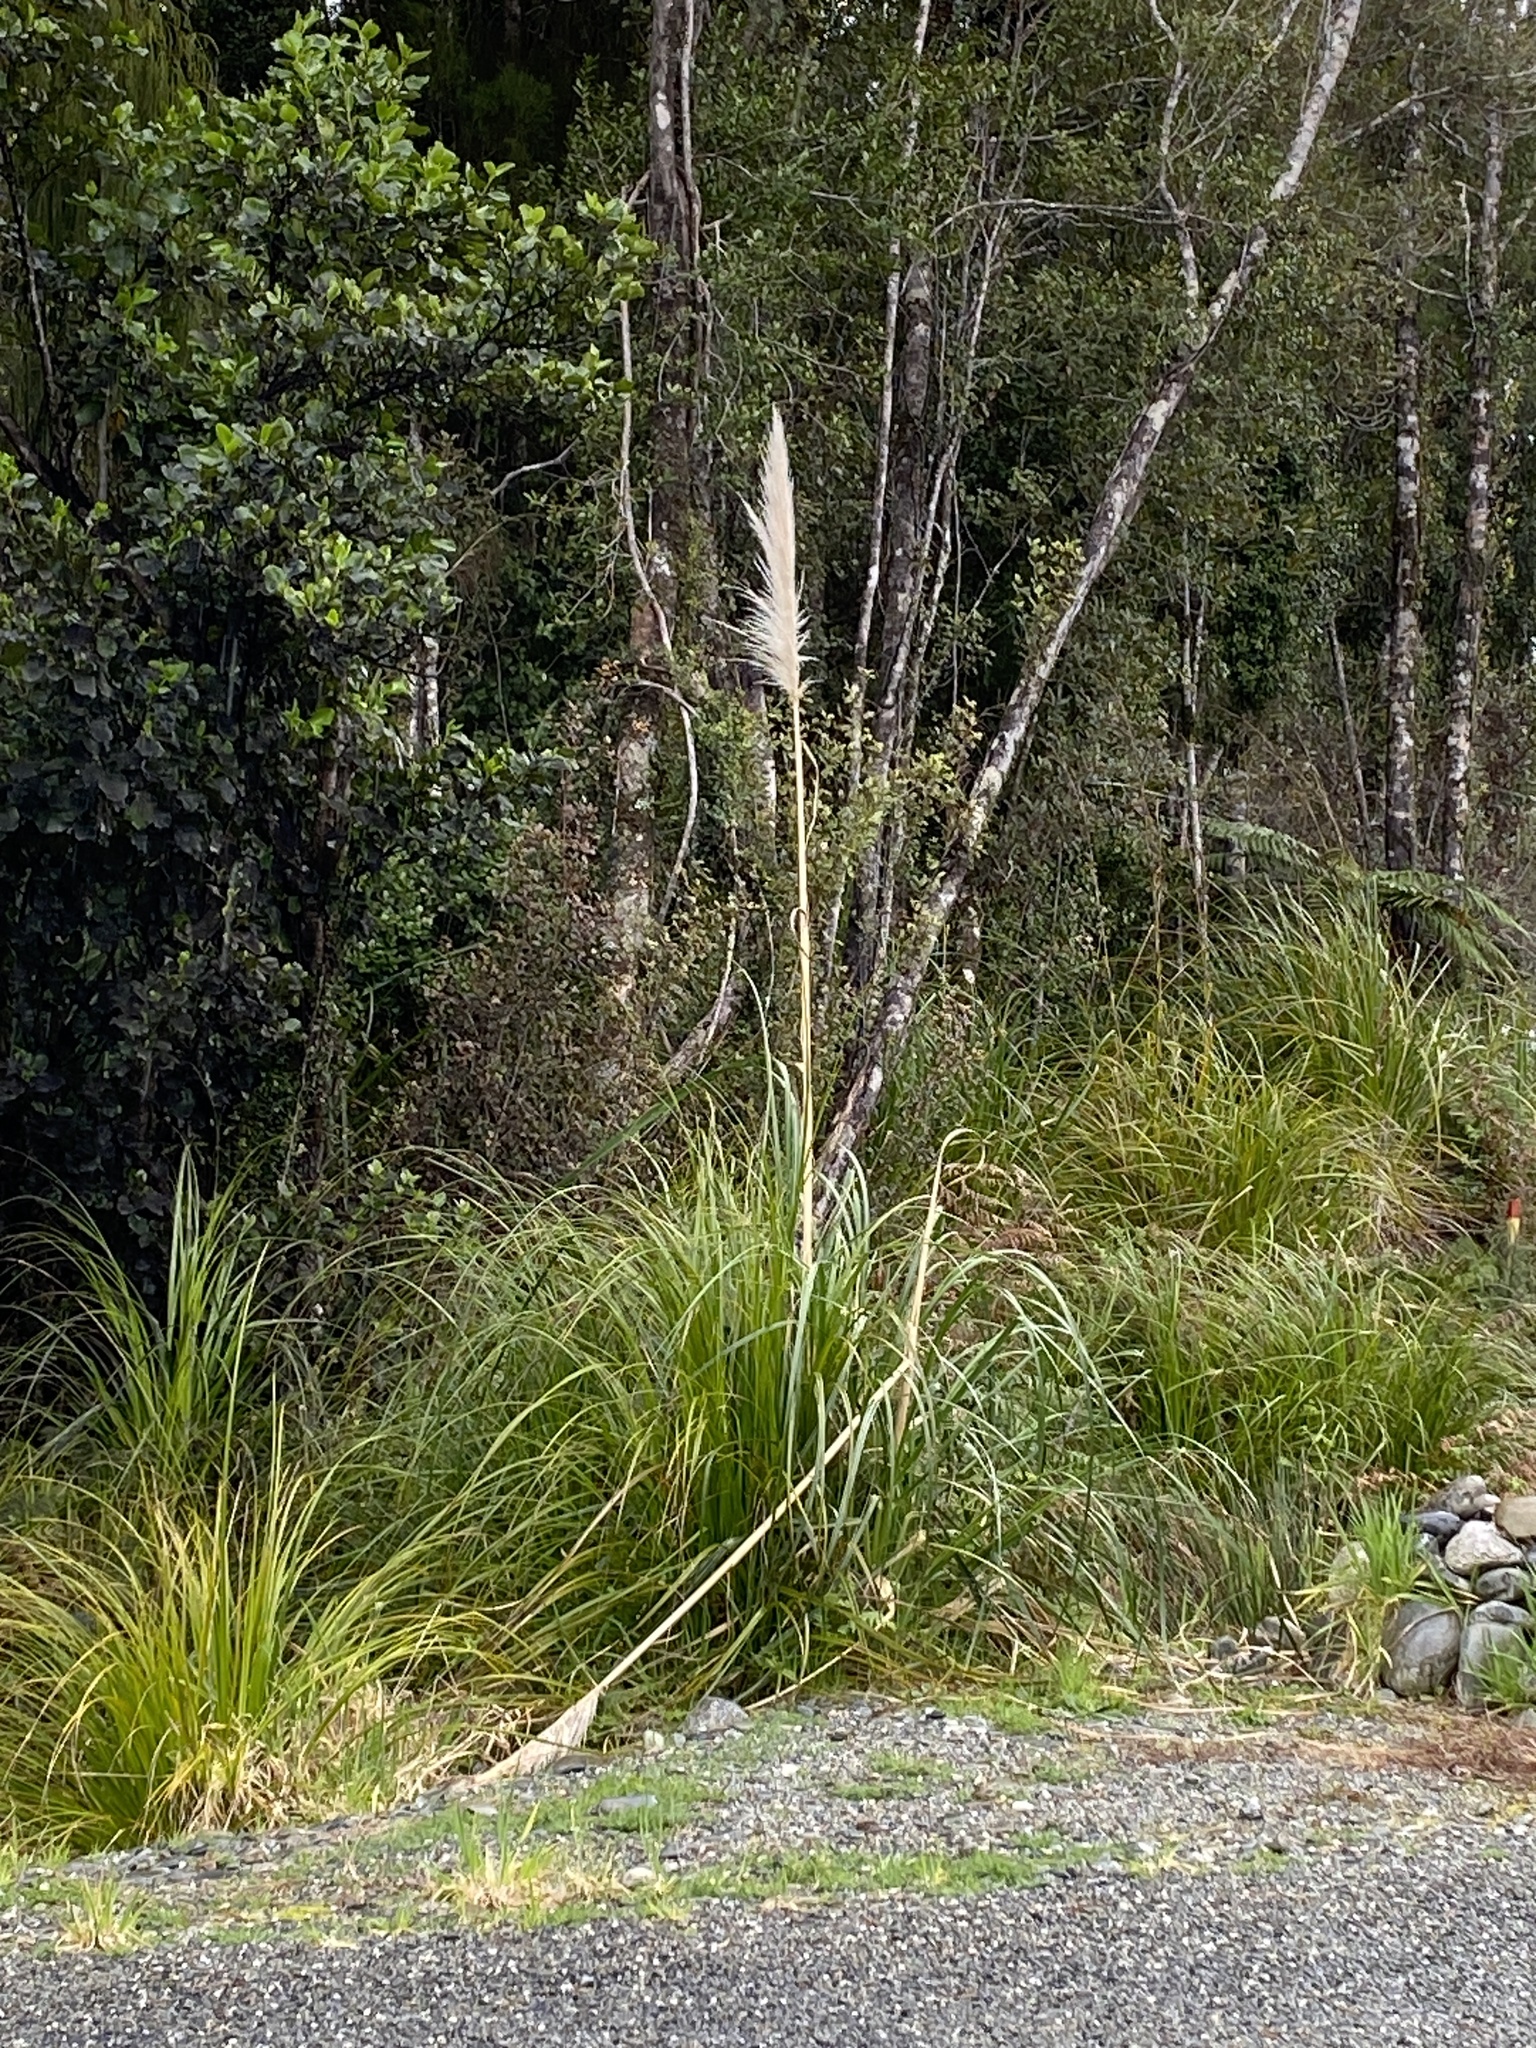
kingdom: Plantae
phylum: Tracheophyta
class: Liliopsida
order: Poales
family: Poaceae
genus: Cortaderia
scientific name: Cortaderia jubata
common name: Purple pampas grass
